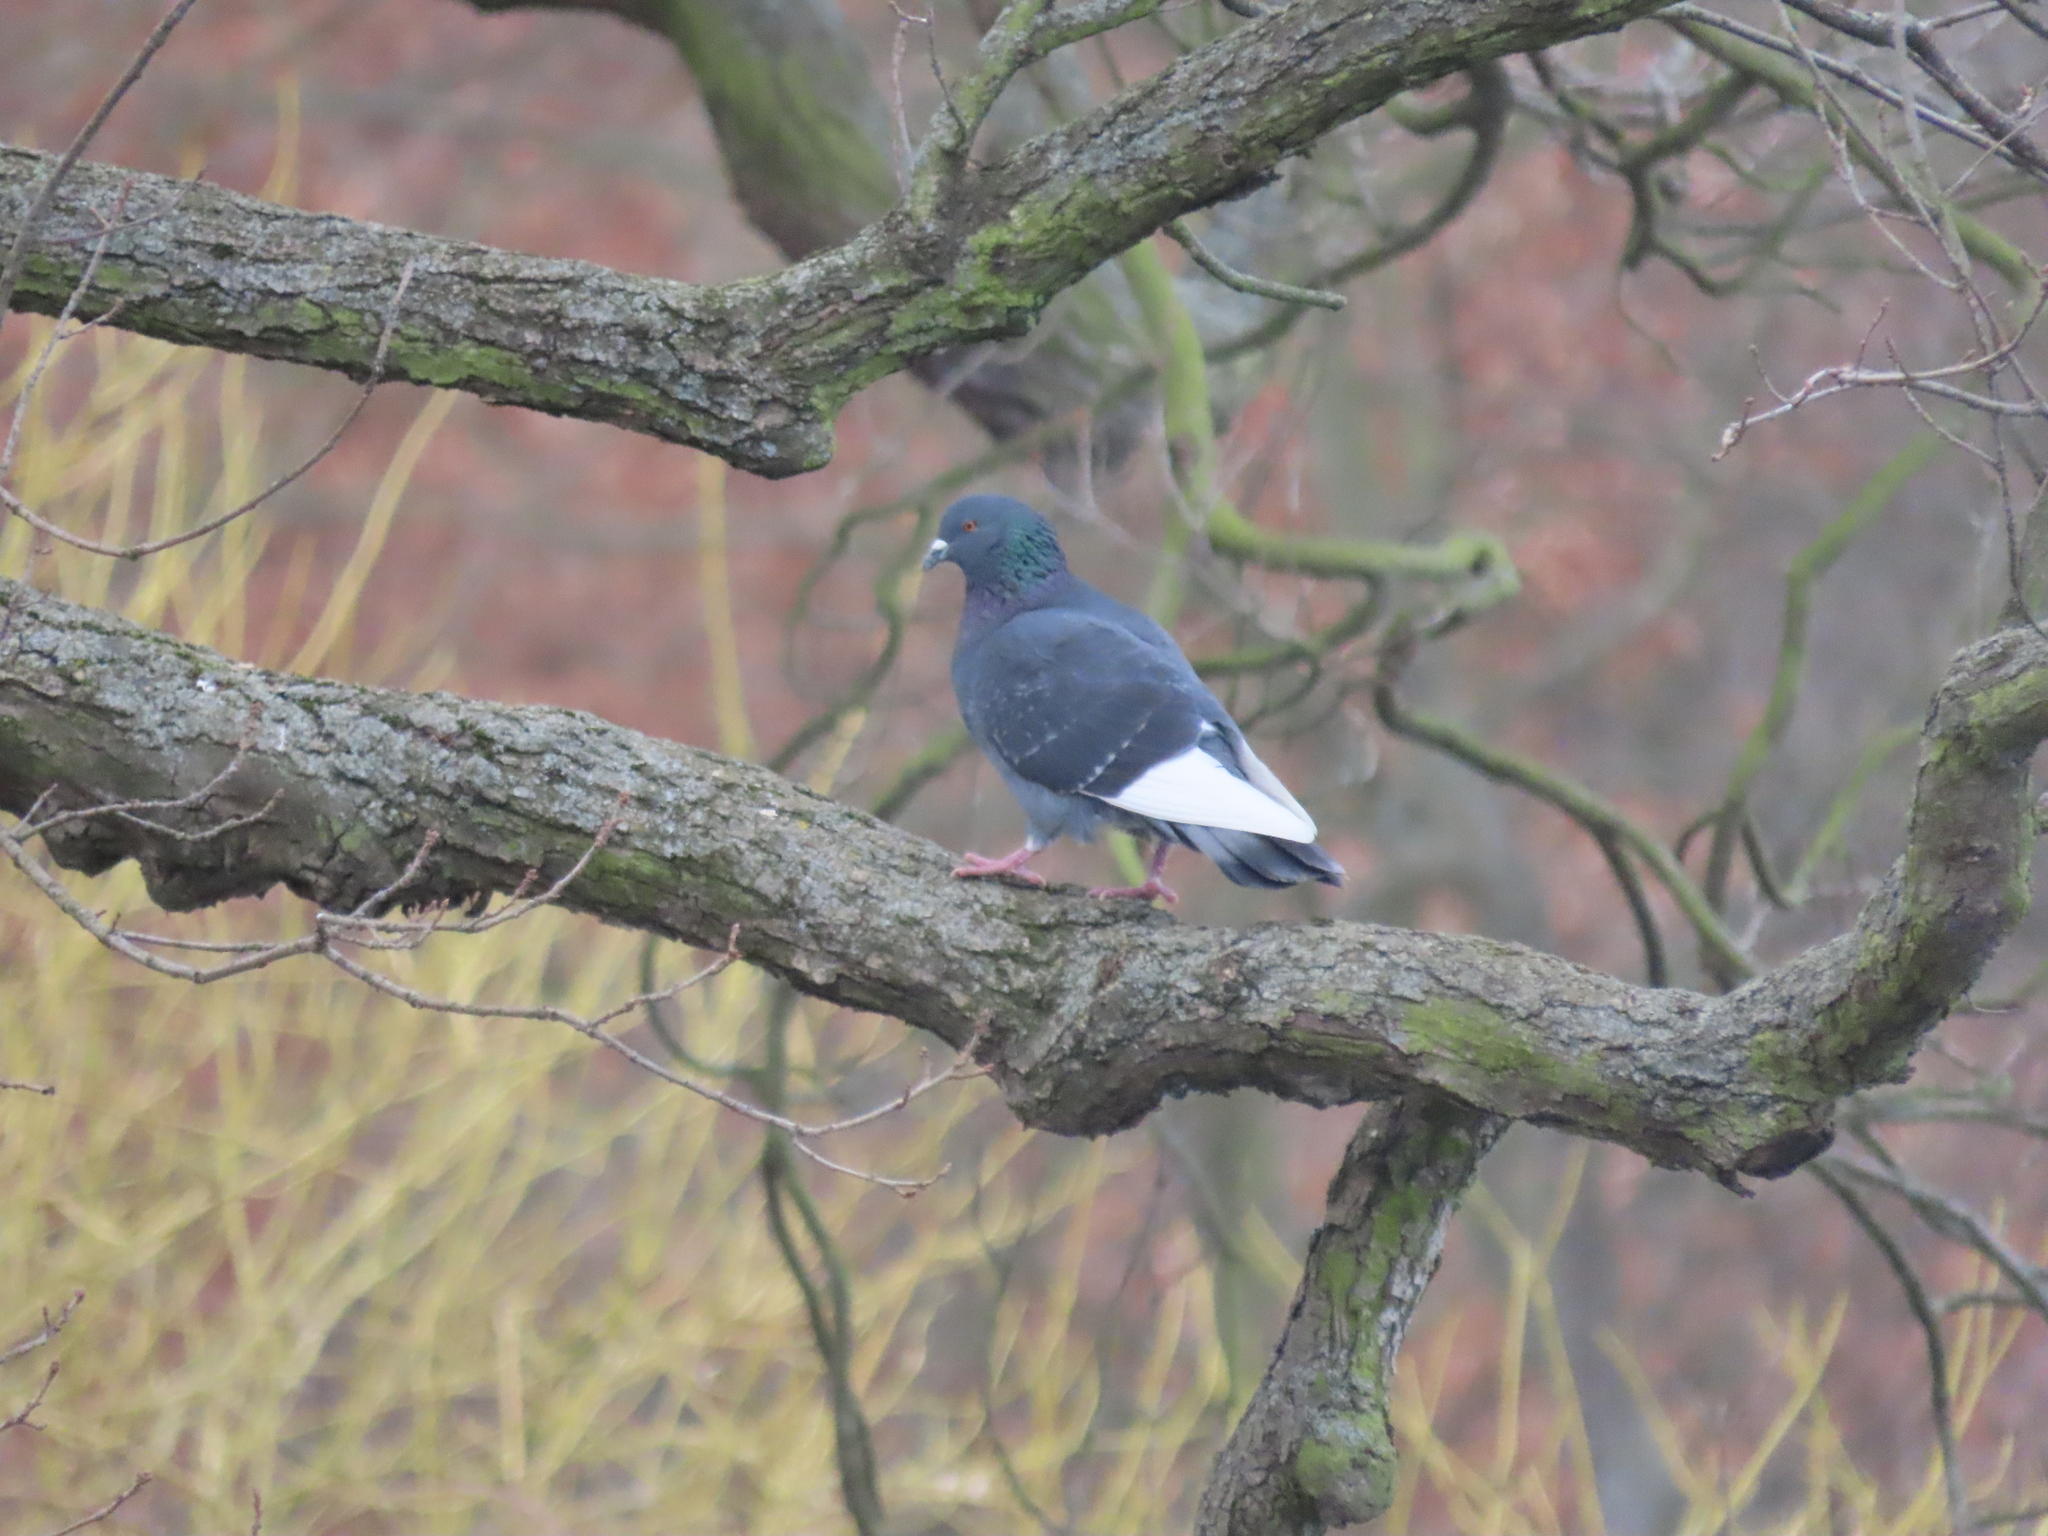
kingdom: Animalia
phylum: Chordata
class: Aves
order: Columbiformes
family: Columbidae
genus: Columba
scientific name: Columba livia
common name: Rock pigeon
